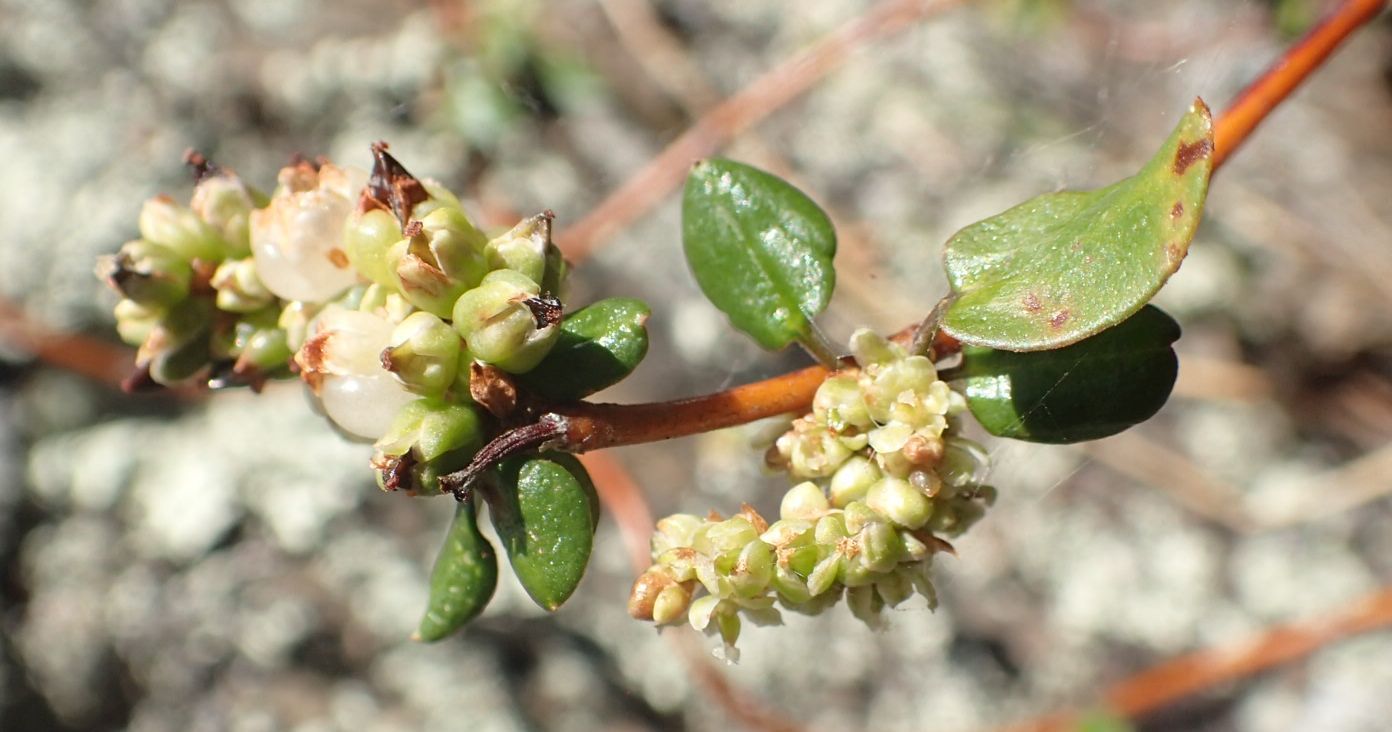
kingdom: Plantae
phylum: Tracheophyta
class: Magnoliopsida
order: Caryophyllales
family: Polygonaceae
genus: Muehlenbeckia
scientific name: Muehlenbeckia complexa
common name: Wireplant
